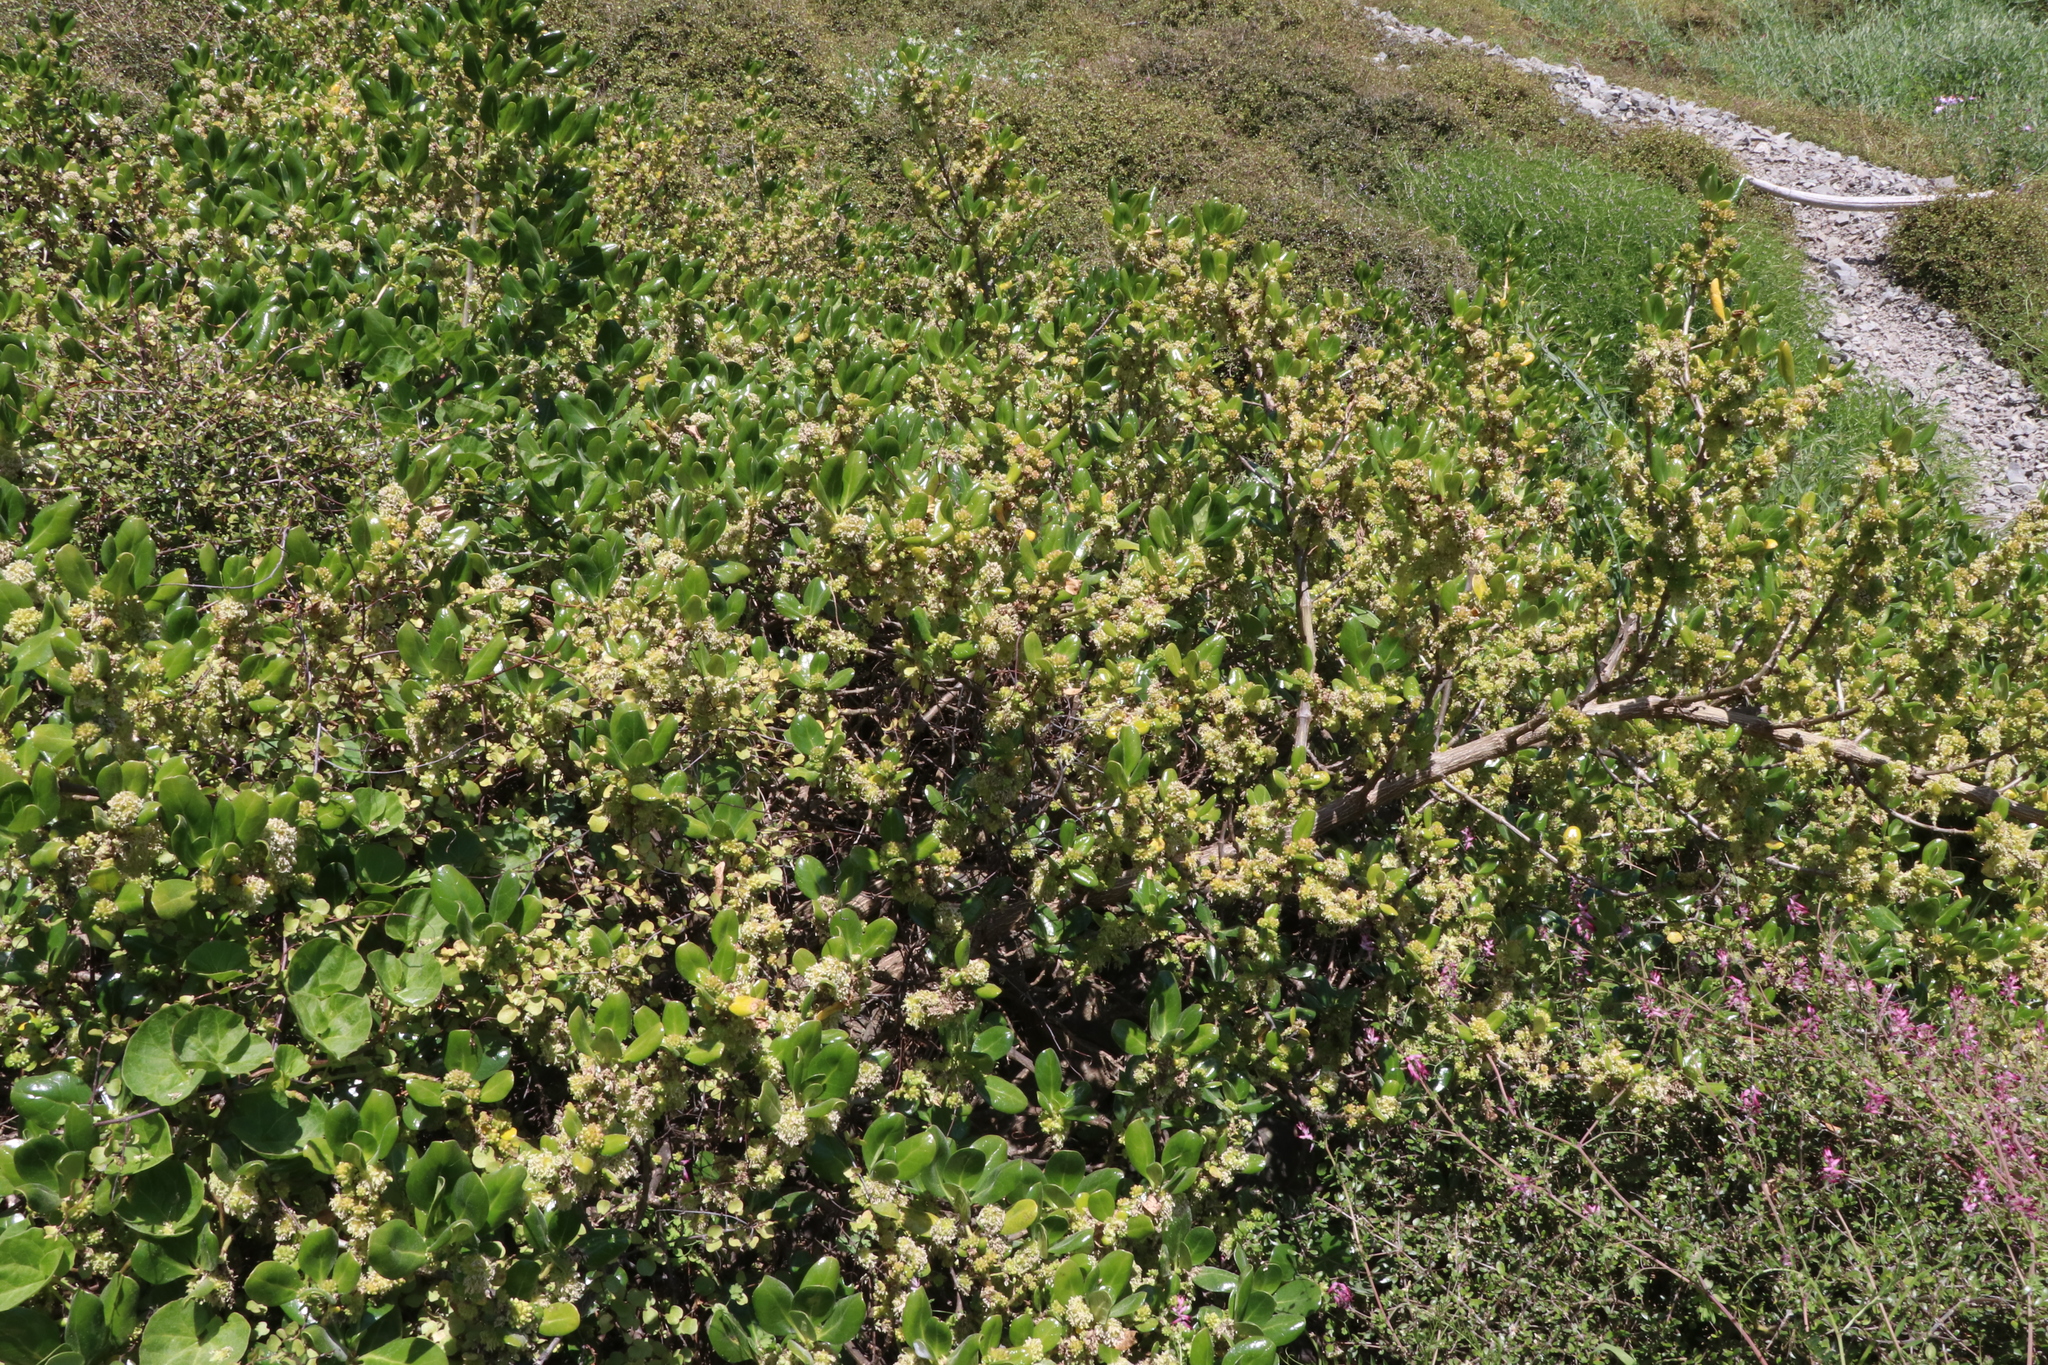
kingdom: Plantae
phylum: Tracheophyta
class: Magnoliopsida
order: Gentianales
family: Rubiaceae
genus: Coprosma
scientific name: Coprosma repens
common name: Tree bedstraw
